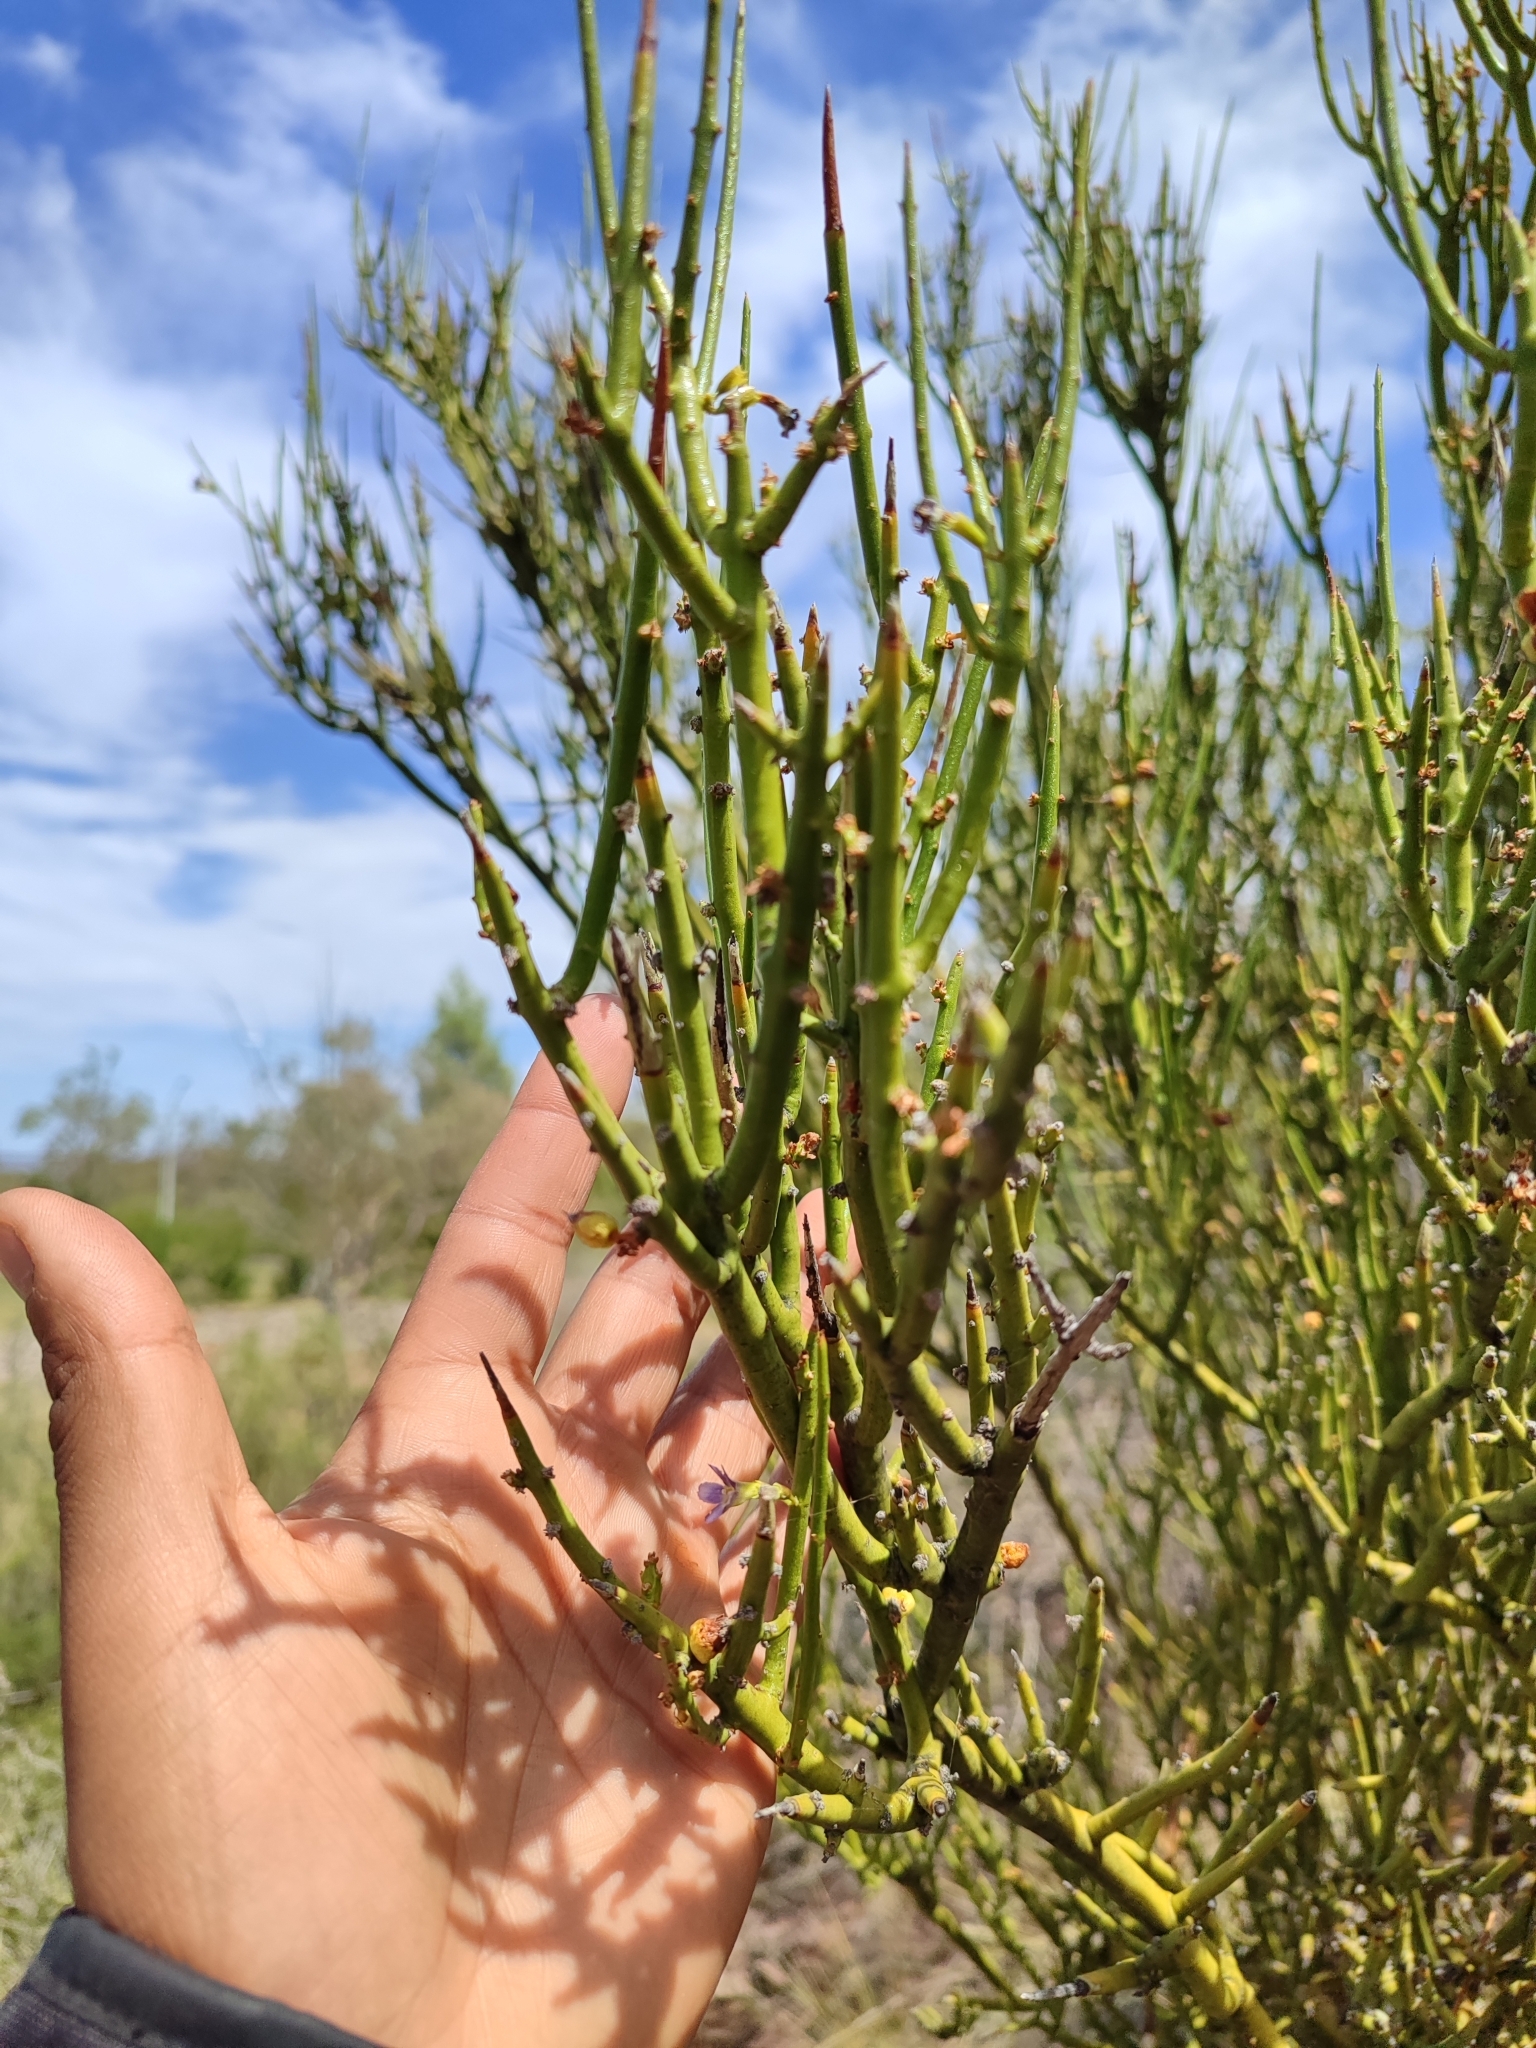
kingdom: Plantae
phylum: Tracheophyta
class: Magnoliopsida
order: Lamiales
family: Plantaginaceae
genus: Monttea
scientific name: Monttea aphylla
